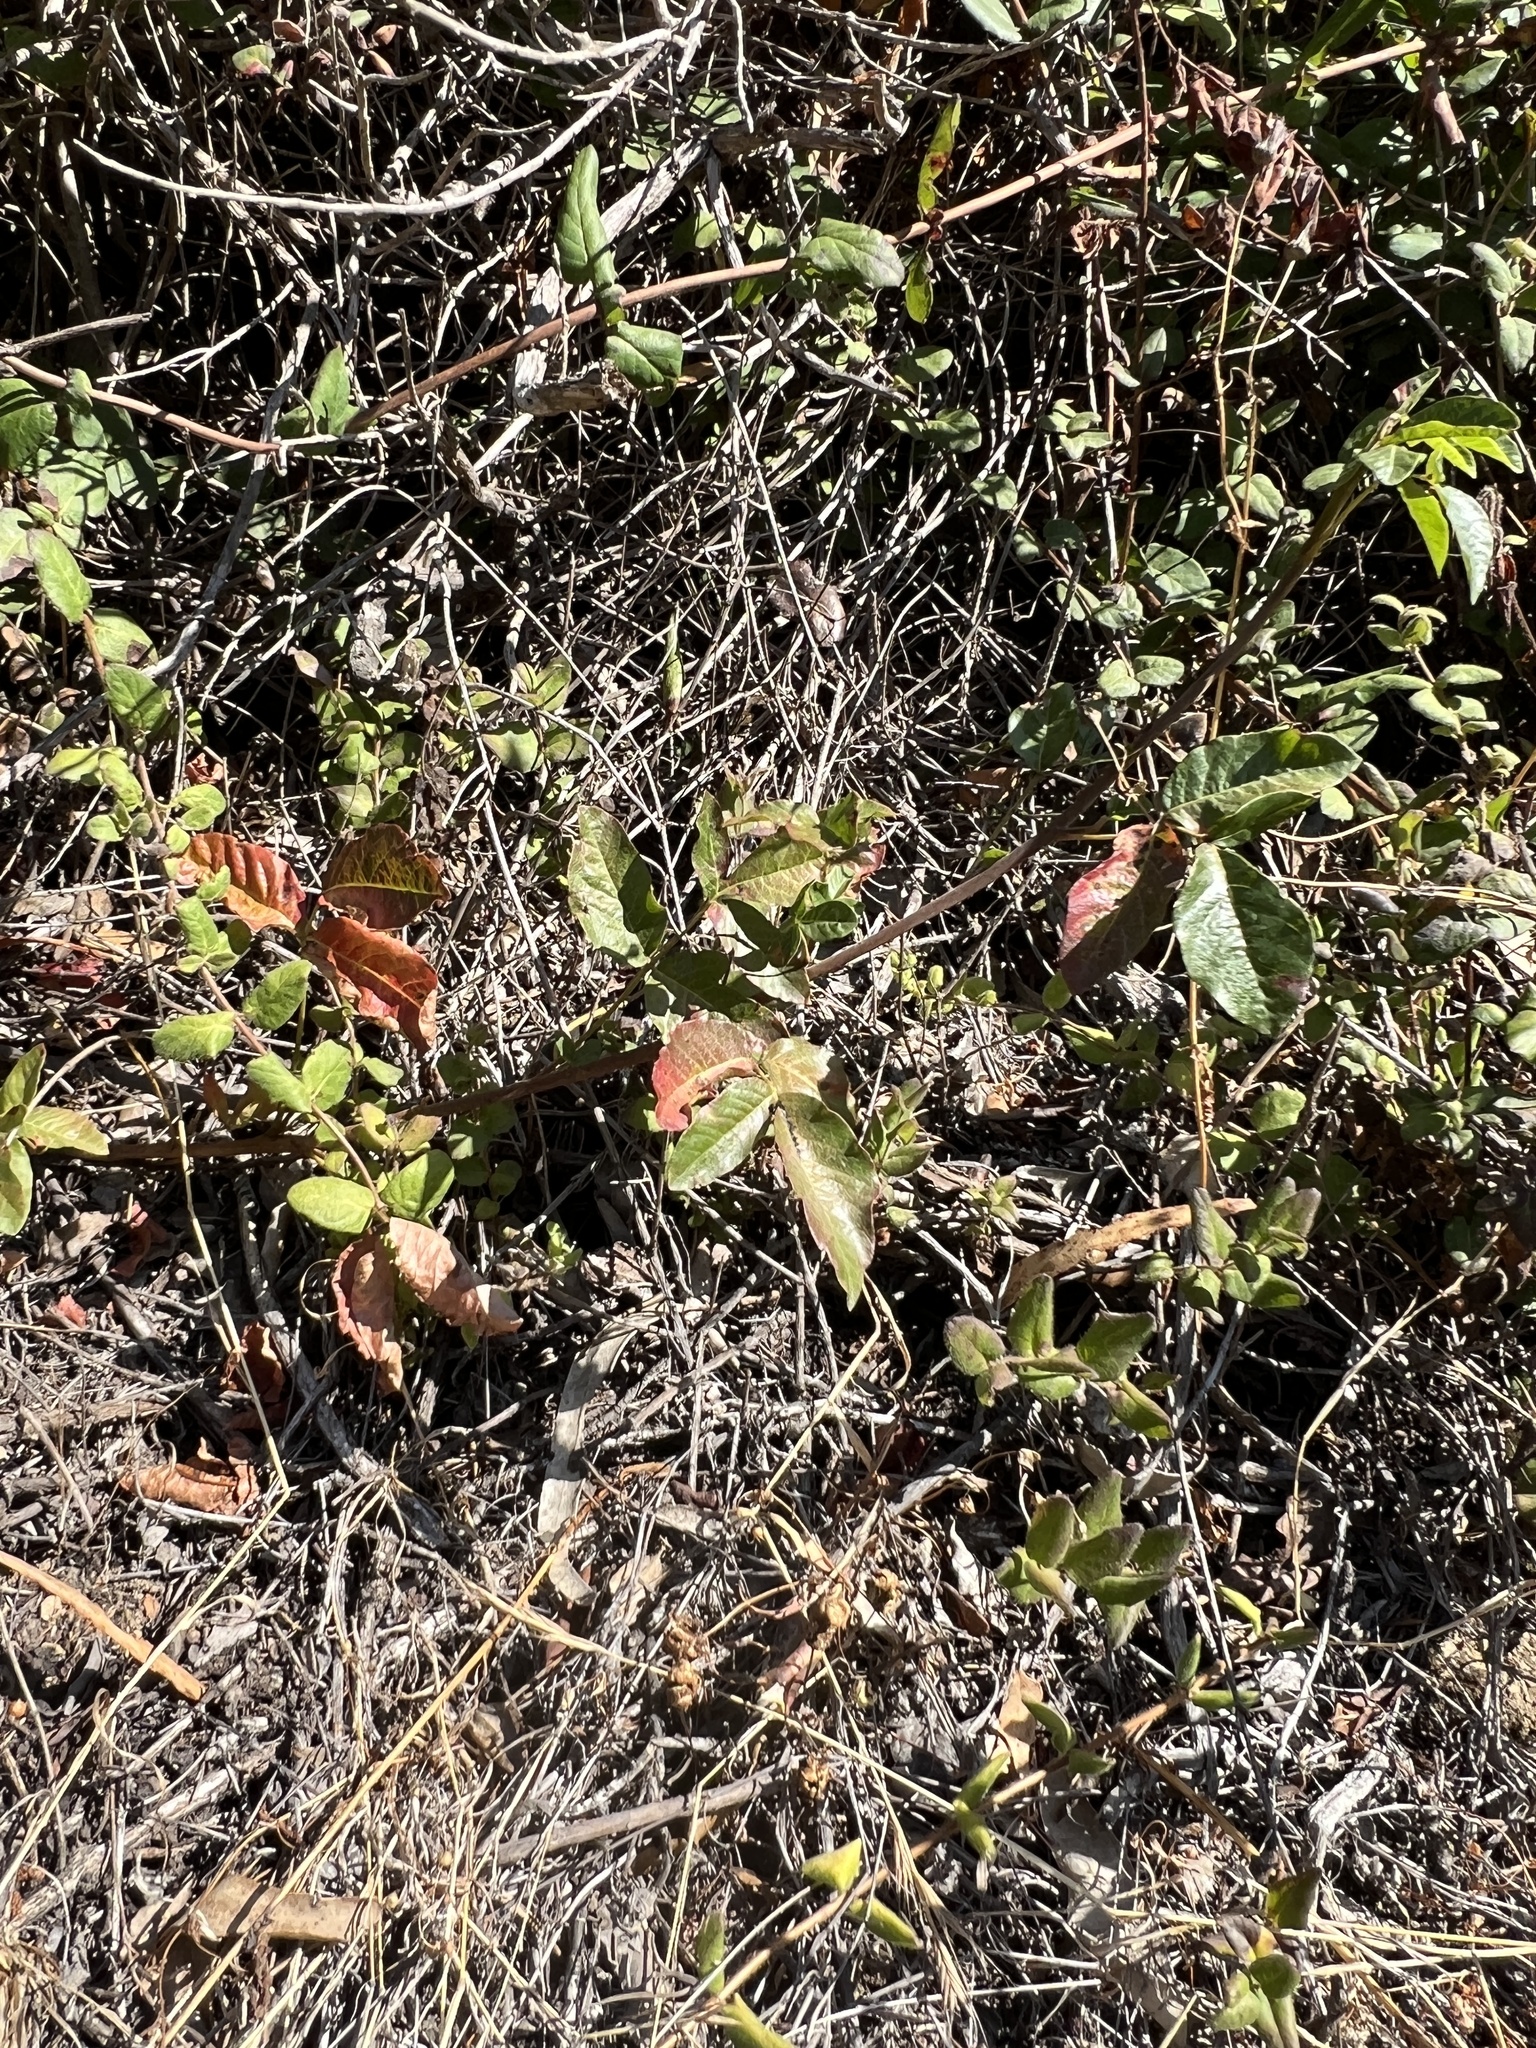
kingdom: Plantae
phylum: Tracheophyta
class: Magnoliopsida
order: Sapindales
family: Anacardiaceae
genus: Toxicodendron
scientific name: Toxicodendron diversilobum
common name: Pacific poison-oak
